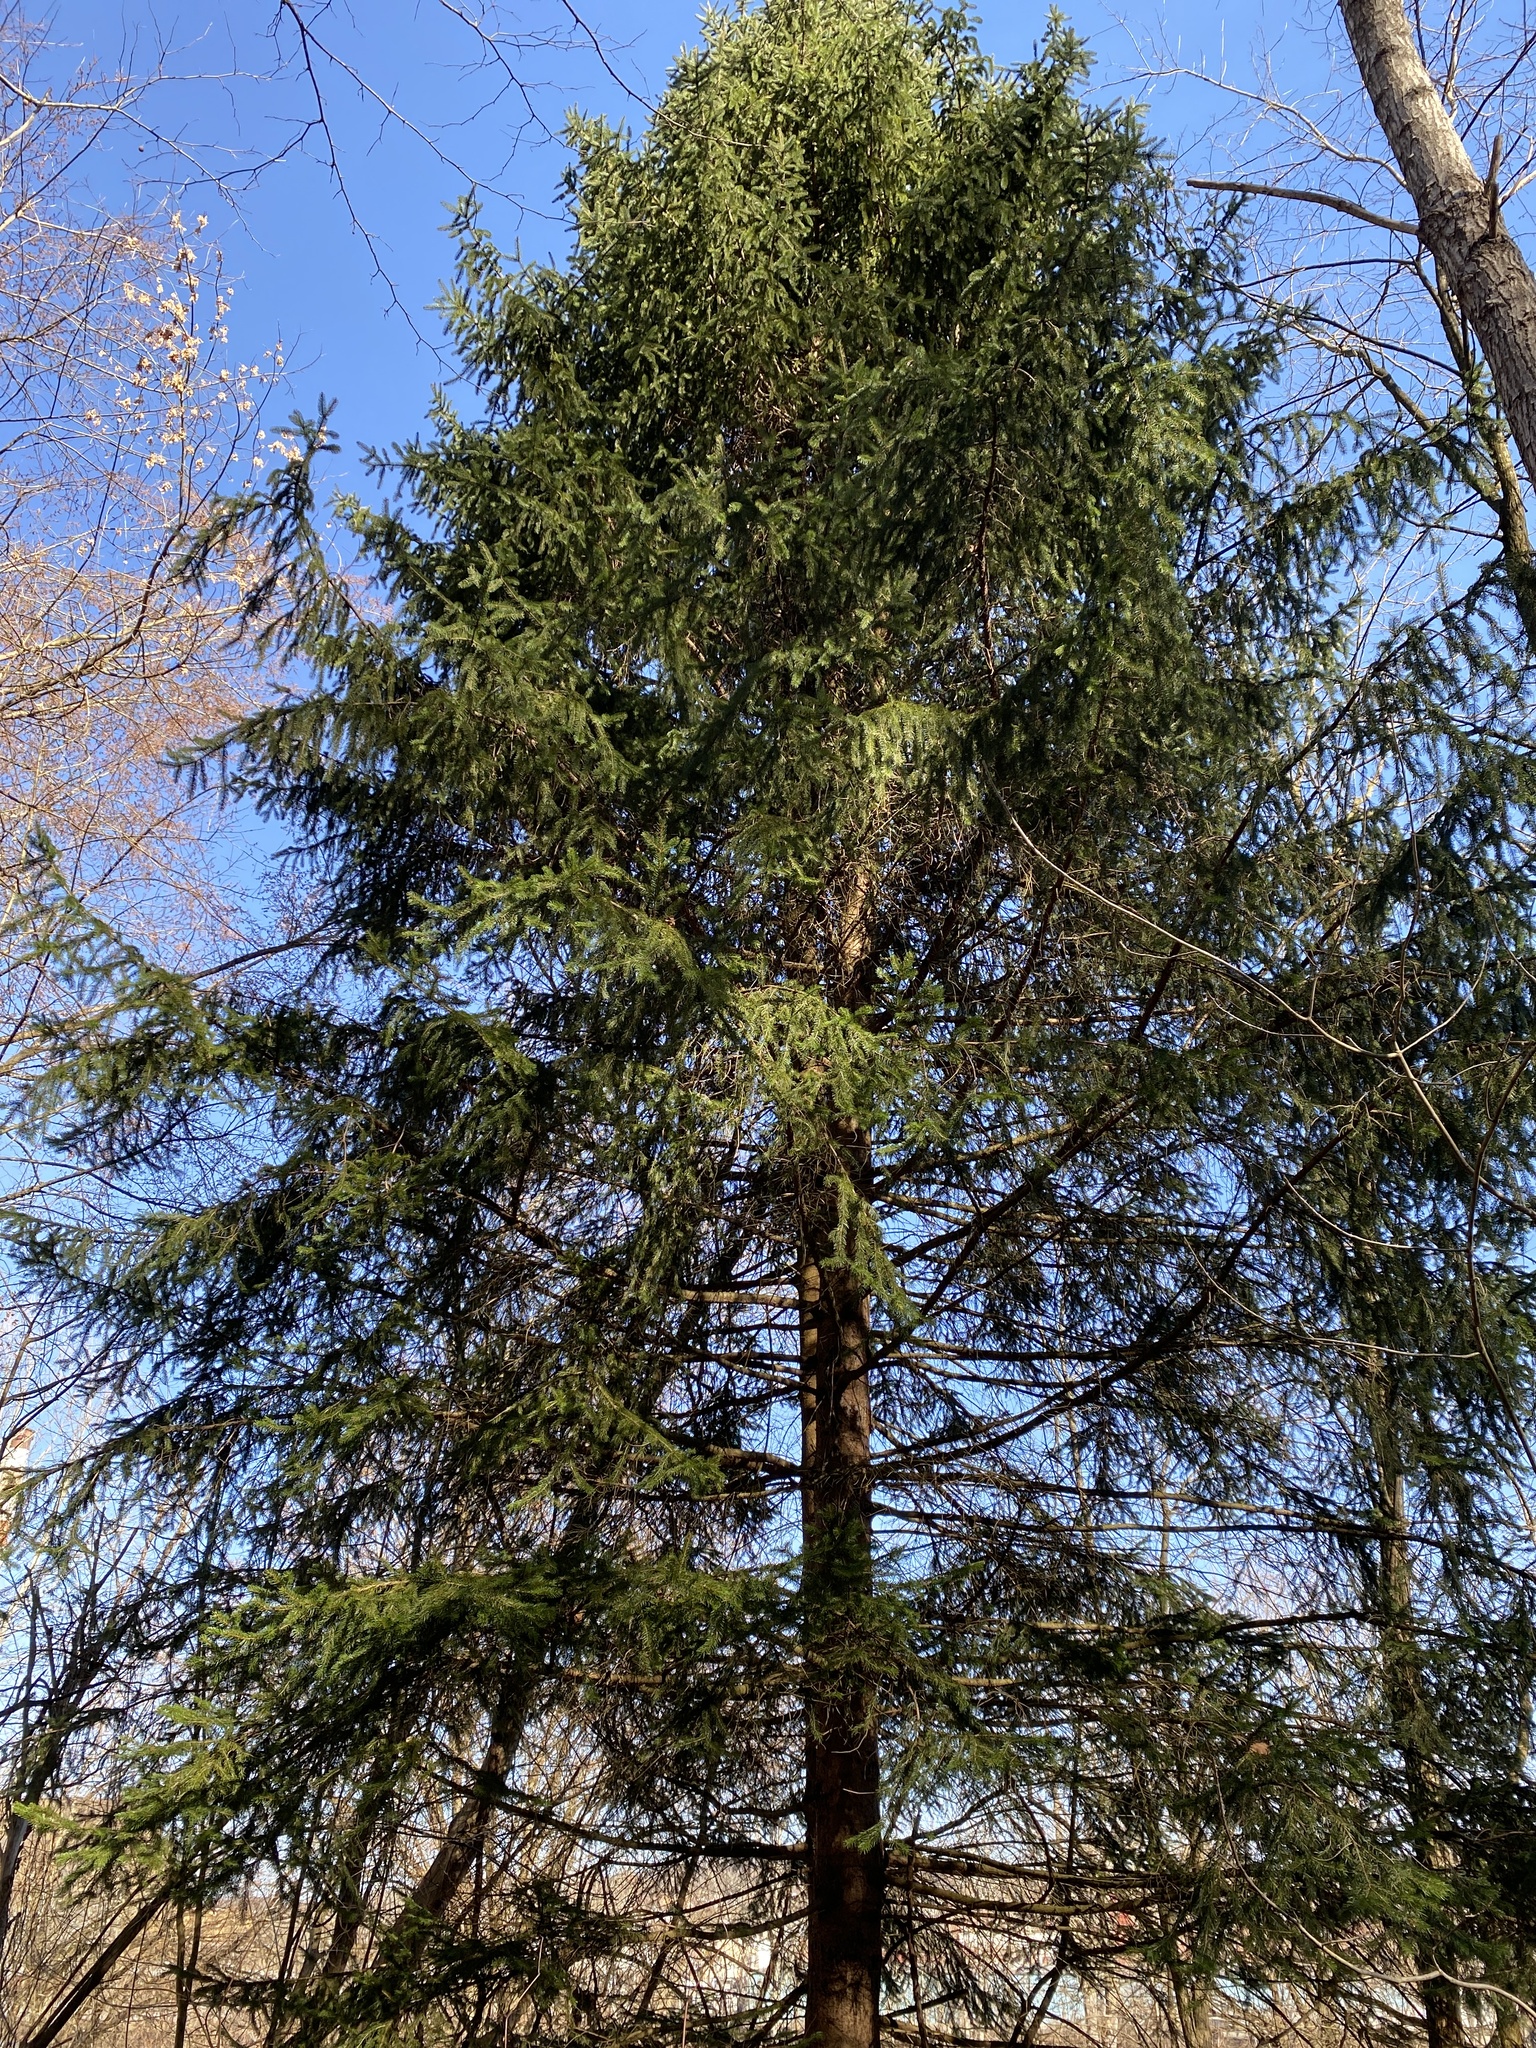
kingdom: Plantae
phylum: Tracheophyta
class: Pinopsida
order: Pinales
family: Pinaceae
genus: Picea
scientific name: Picea abies
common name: Norway spruce
